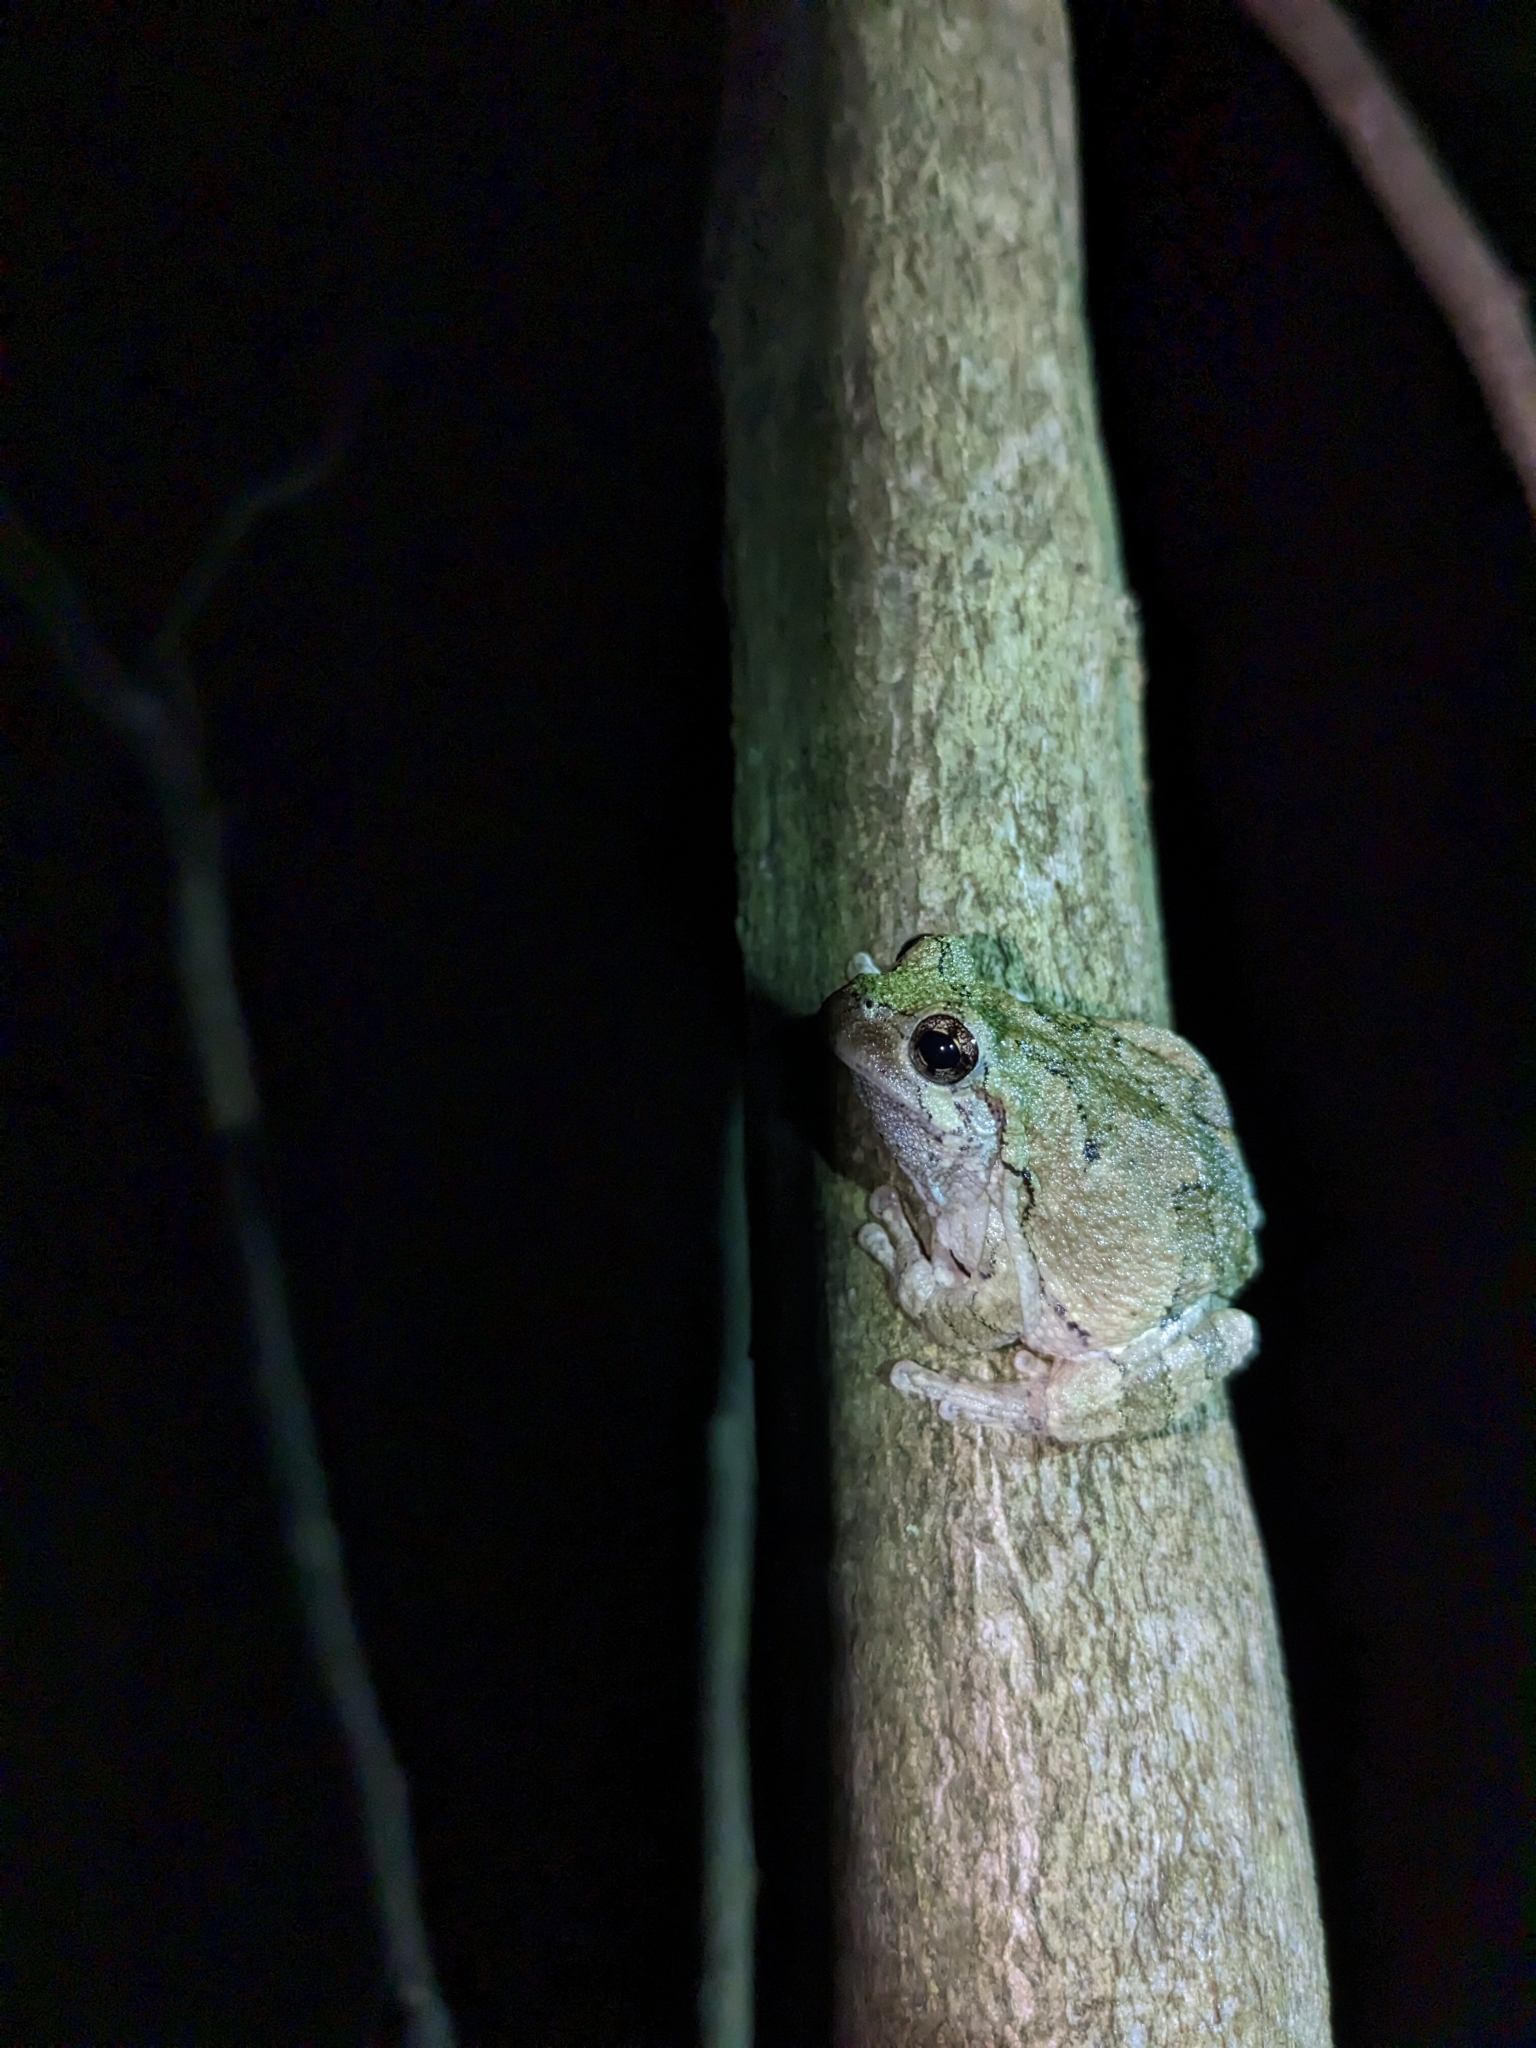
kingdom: Animalia
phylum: Chordata
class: Amphibia
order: Anura
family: Hylidae
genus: Hyla
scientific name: Hyla
